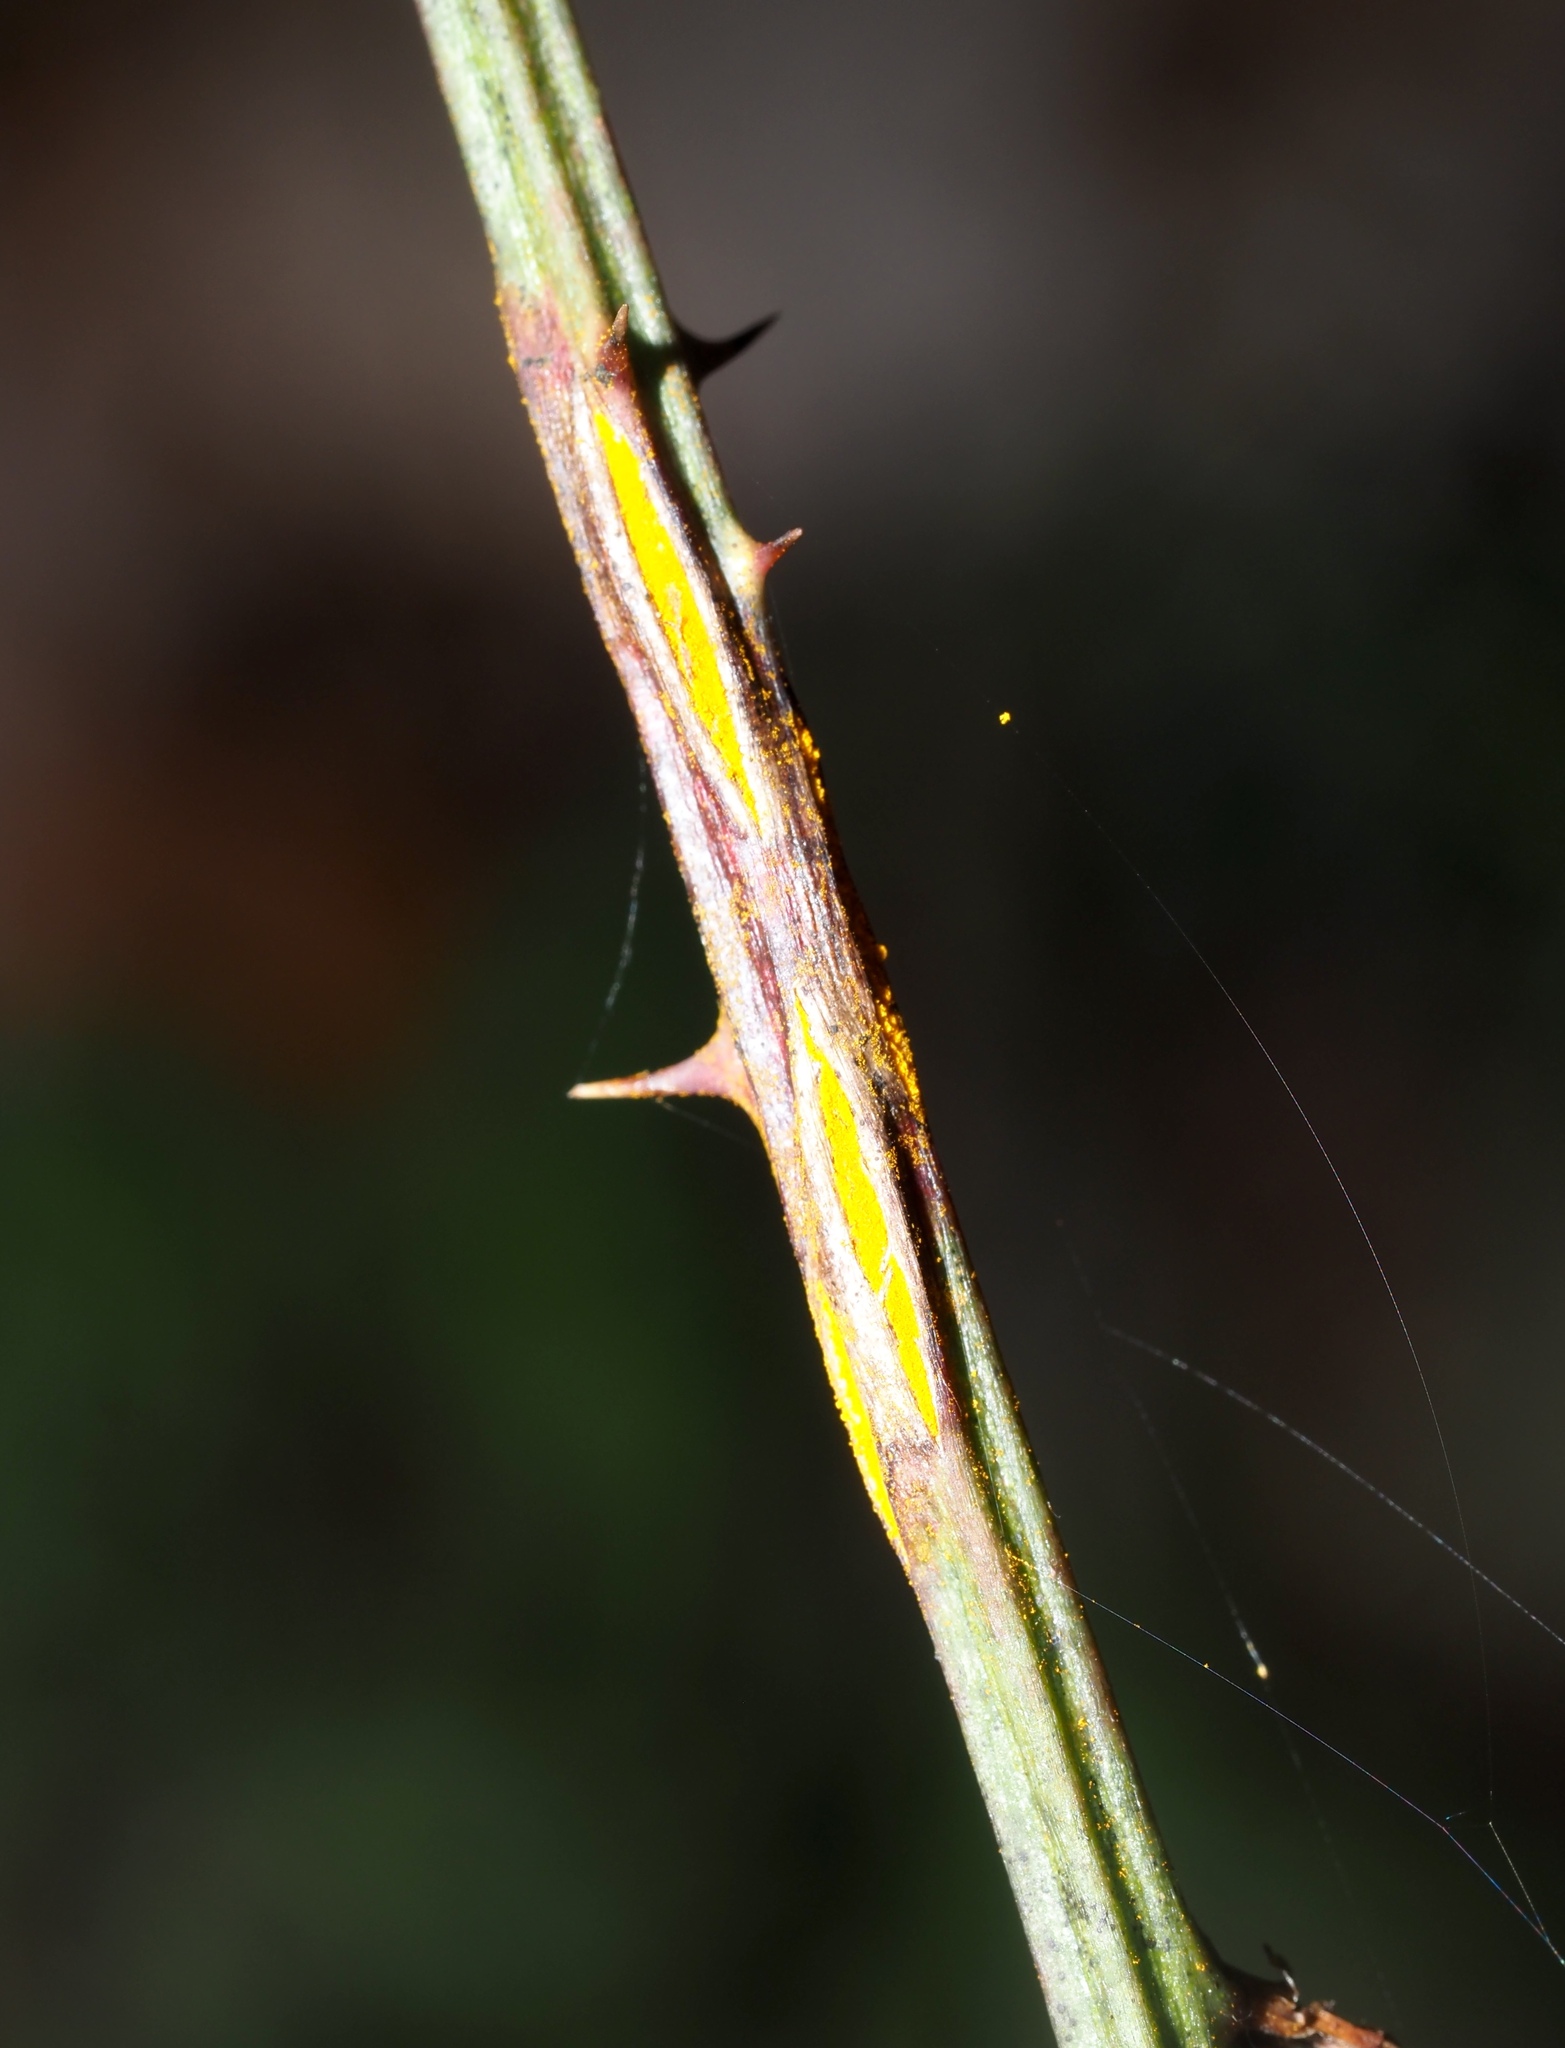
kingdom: Fungi
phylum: Basidiomycota
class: Pucciniomycetes
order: Pucciniales
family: Phragmidiaceae
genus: Kuehneola
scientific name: Kuehneola uredinis
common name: Bramble stem rust
